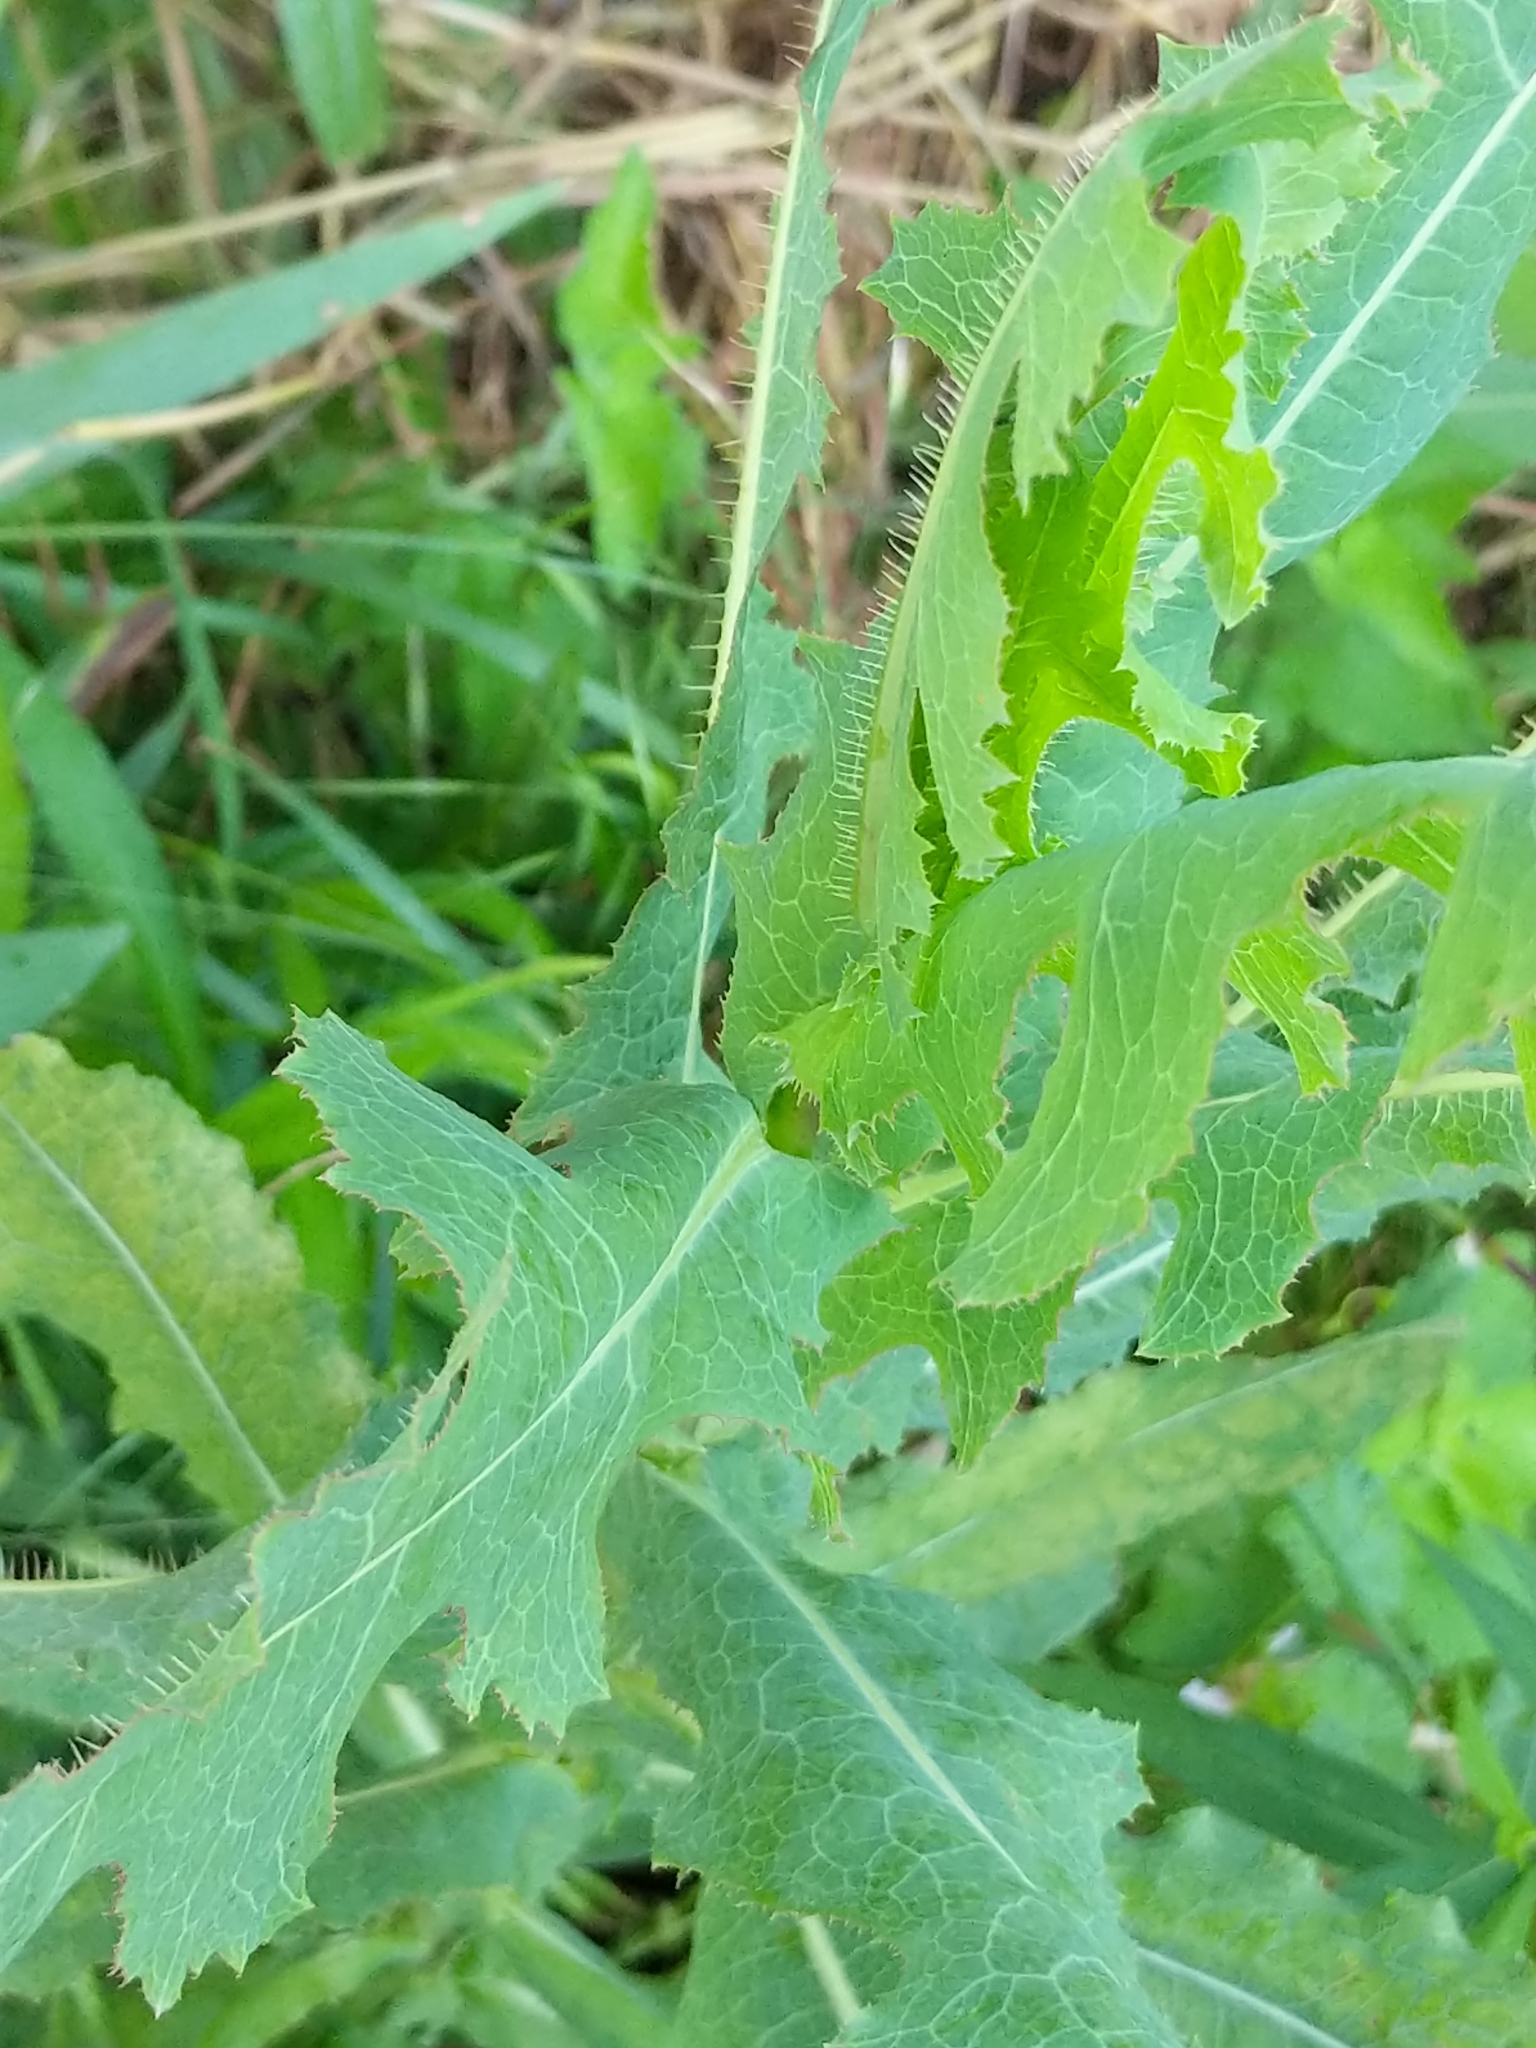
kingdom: Plantae
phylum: Tracheophyta
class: Magnoliopsida
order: Asterales
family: Asteraceae
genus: Lactuca
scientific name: Lactuca serriola
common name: Prickly lettuce
